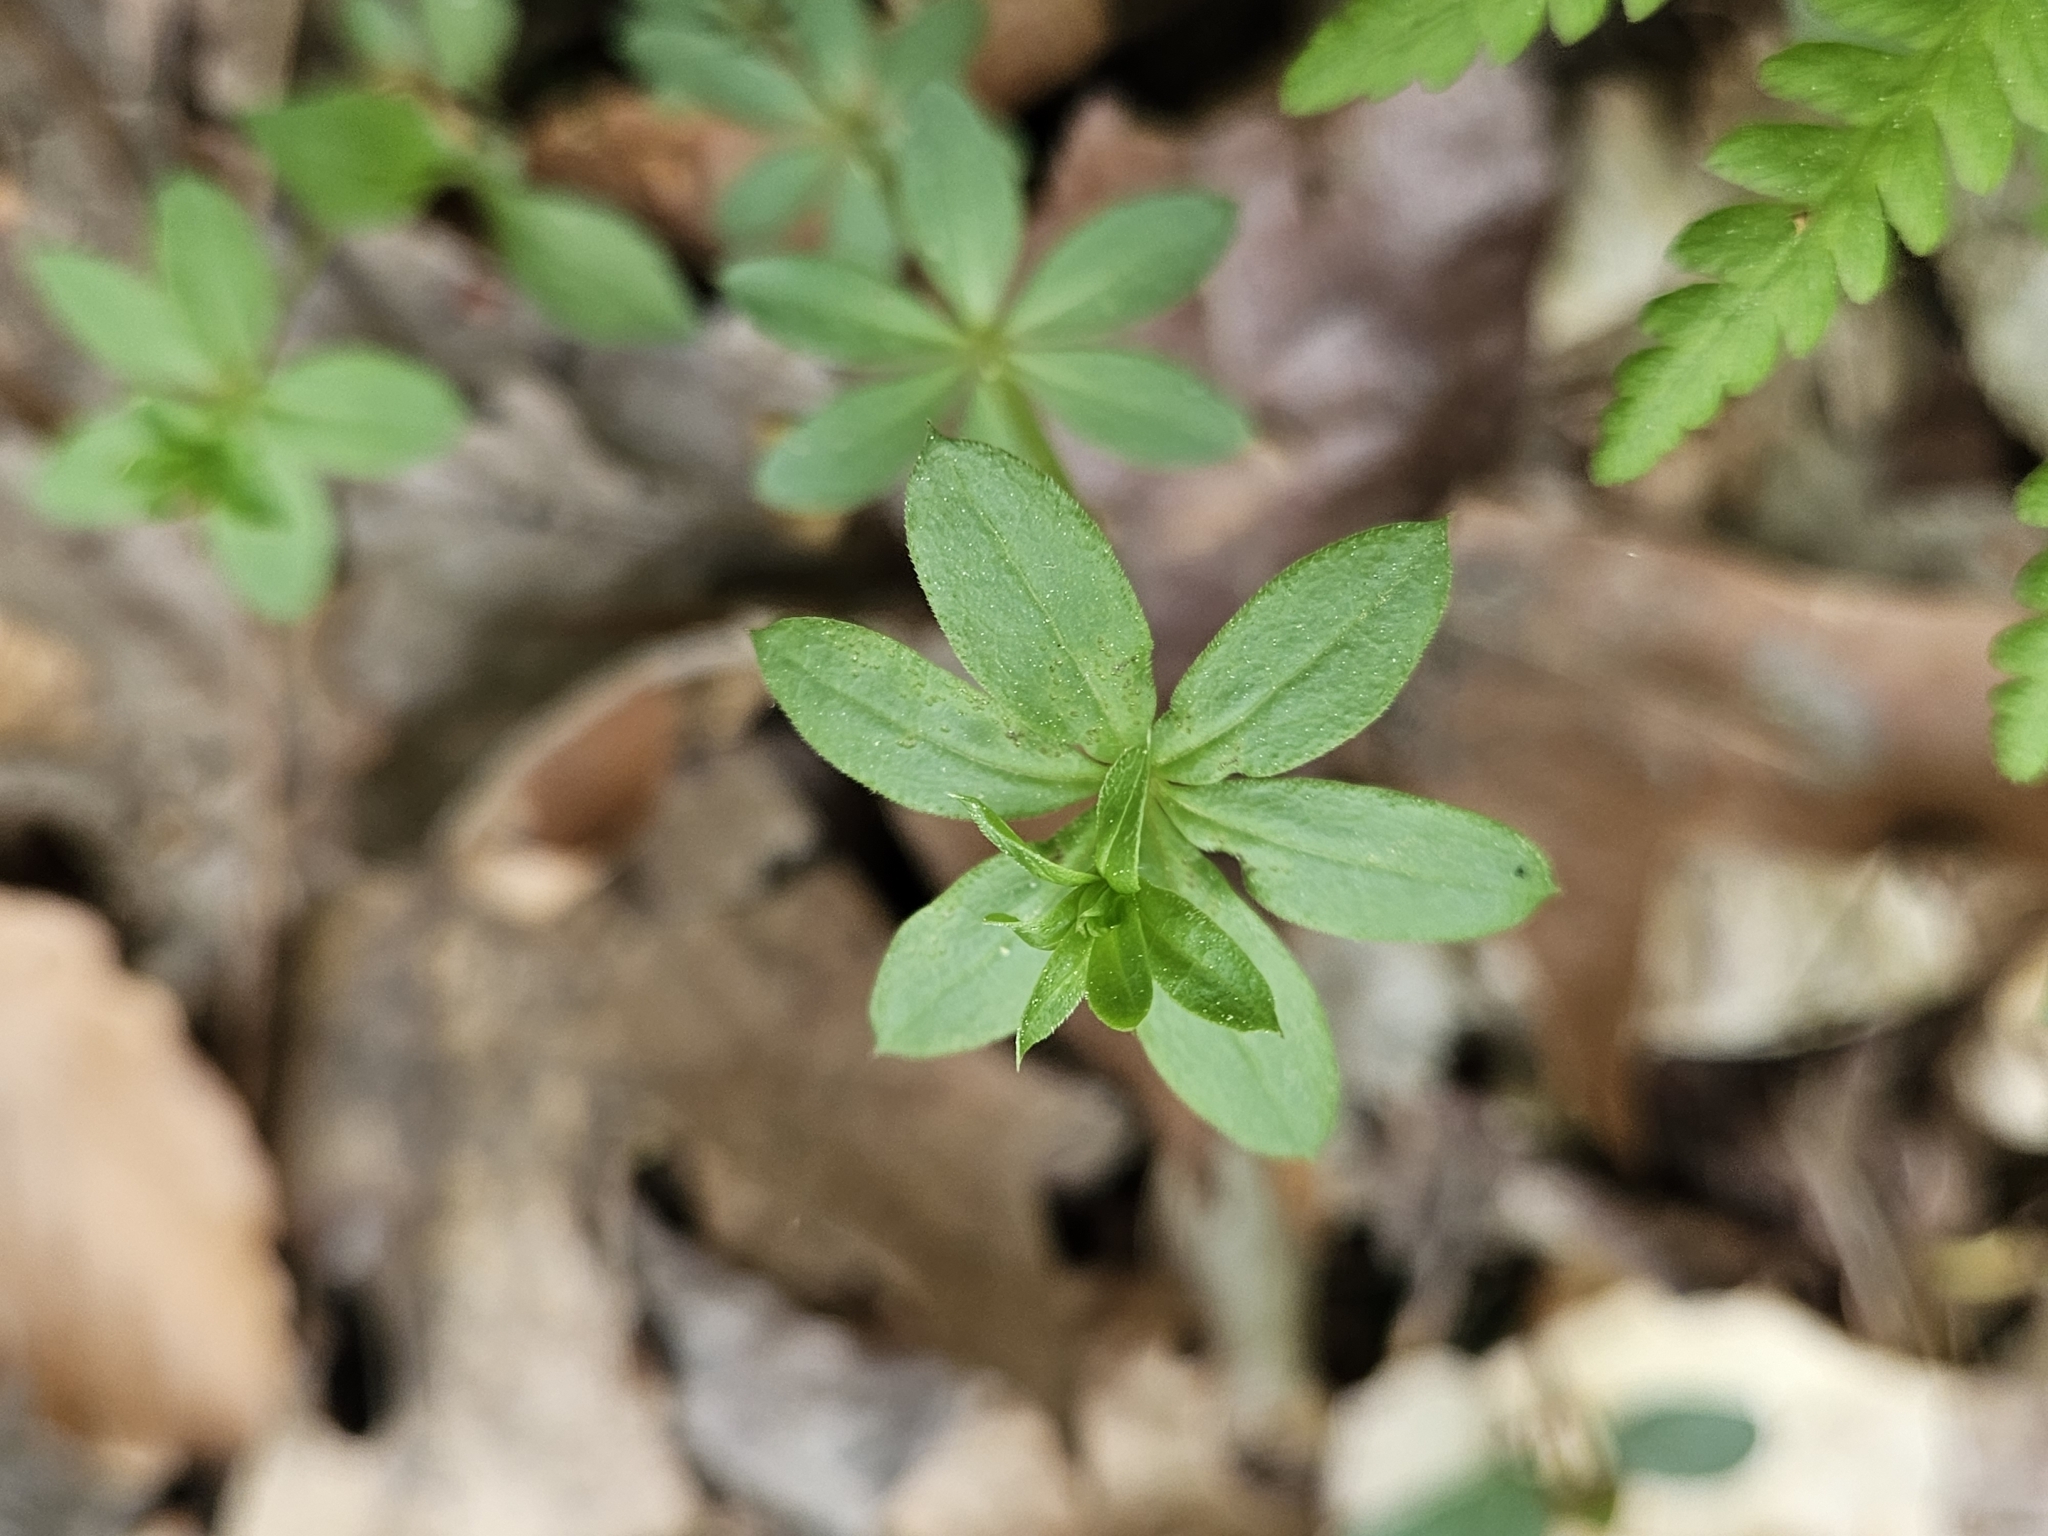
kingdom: Plantae
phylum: Tracheophyta
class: Magnoliopsida
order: Gentianales
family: Rubiaceae
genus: Galium
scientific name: Galium triflorum
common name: Fragrant bedstraw
